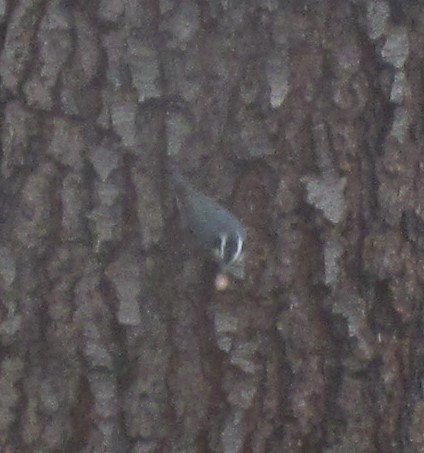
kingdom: Animalia
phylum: Chordata
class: Aves
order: Passeriformes
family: Sittidae
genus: Sitta
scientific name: Sitta canadensis
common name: Red-breasted nuthatch
